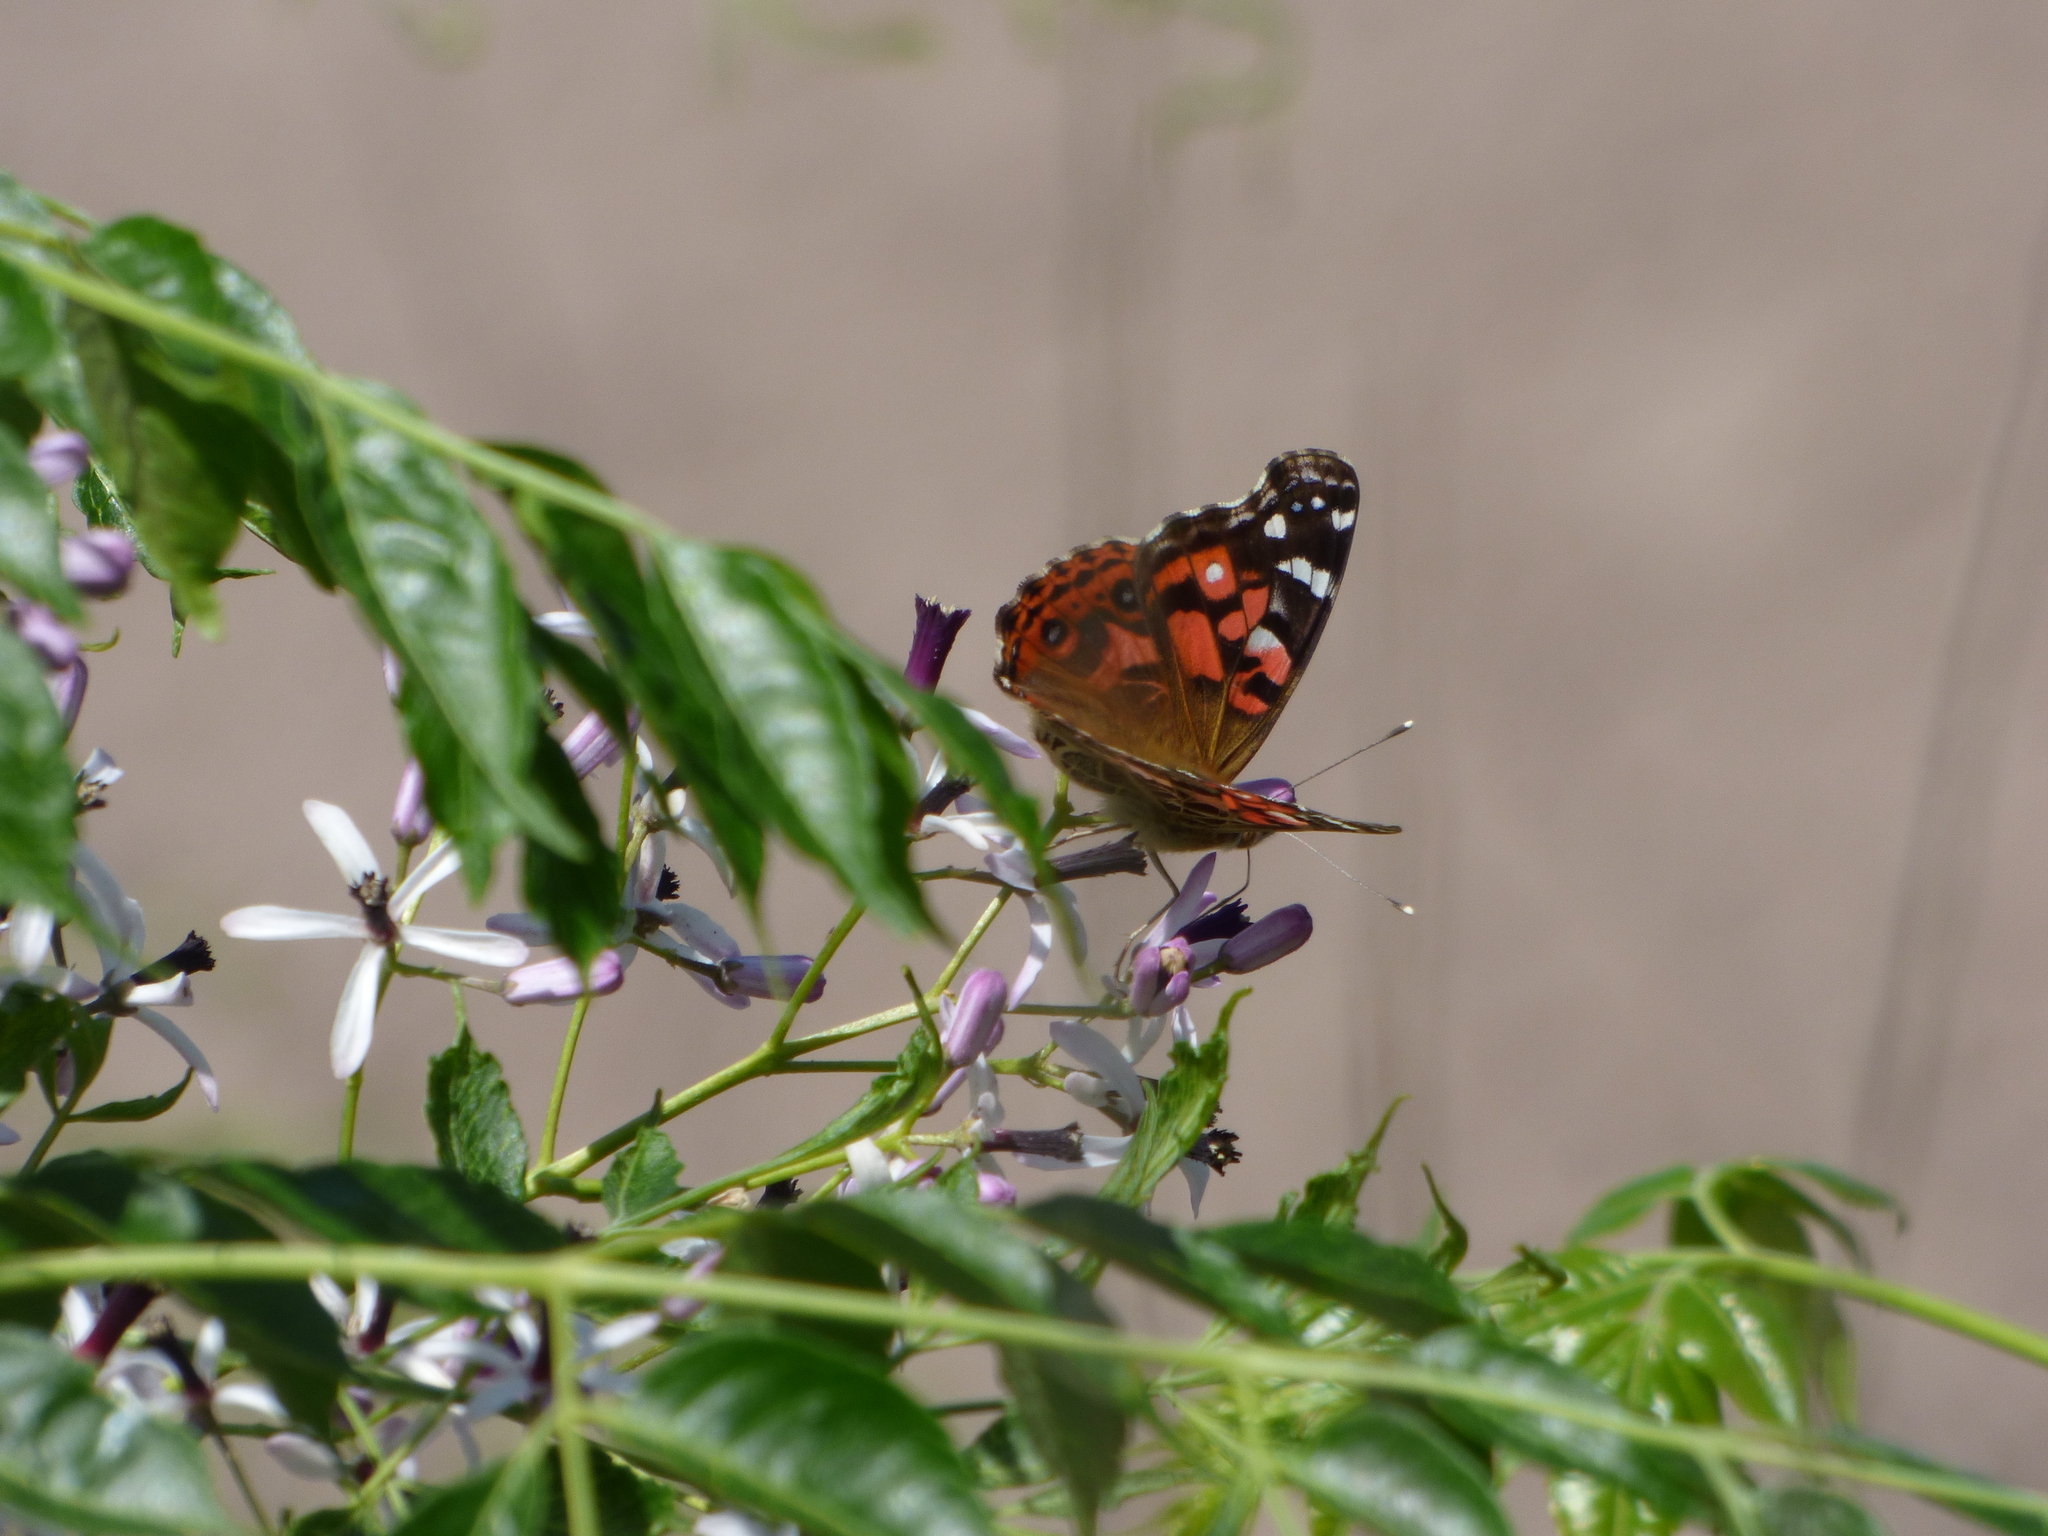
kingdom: Animalia
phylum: Arthropoda
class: Insecta
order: Lepidoptera
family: Nymphalidae
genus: Vanessa
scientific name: Vanessa braziliensis
